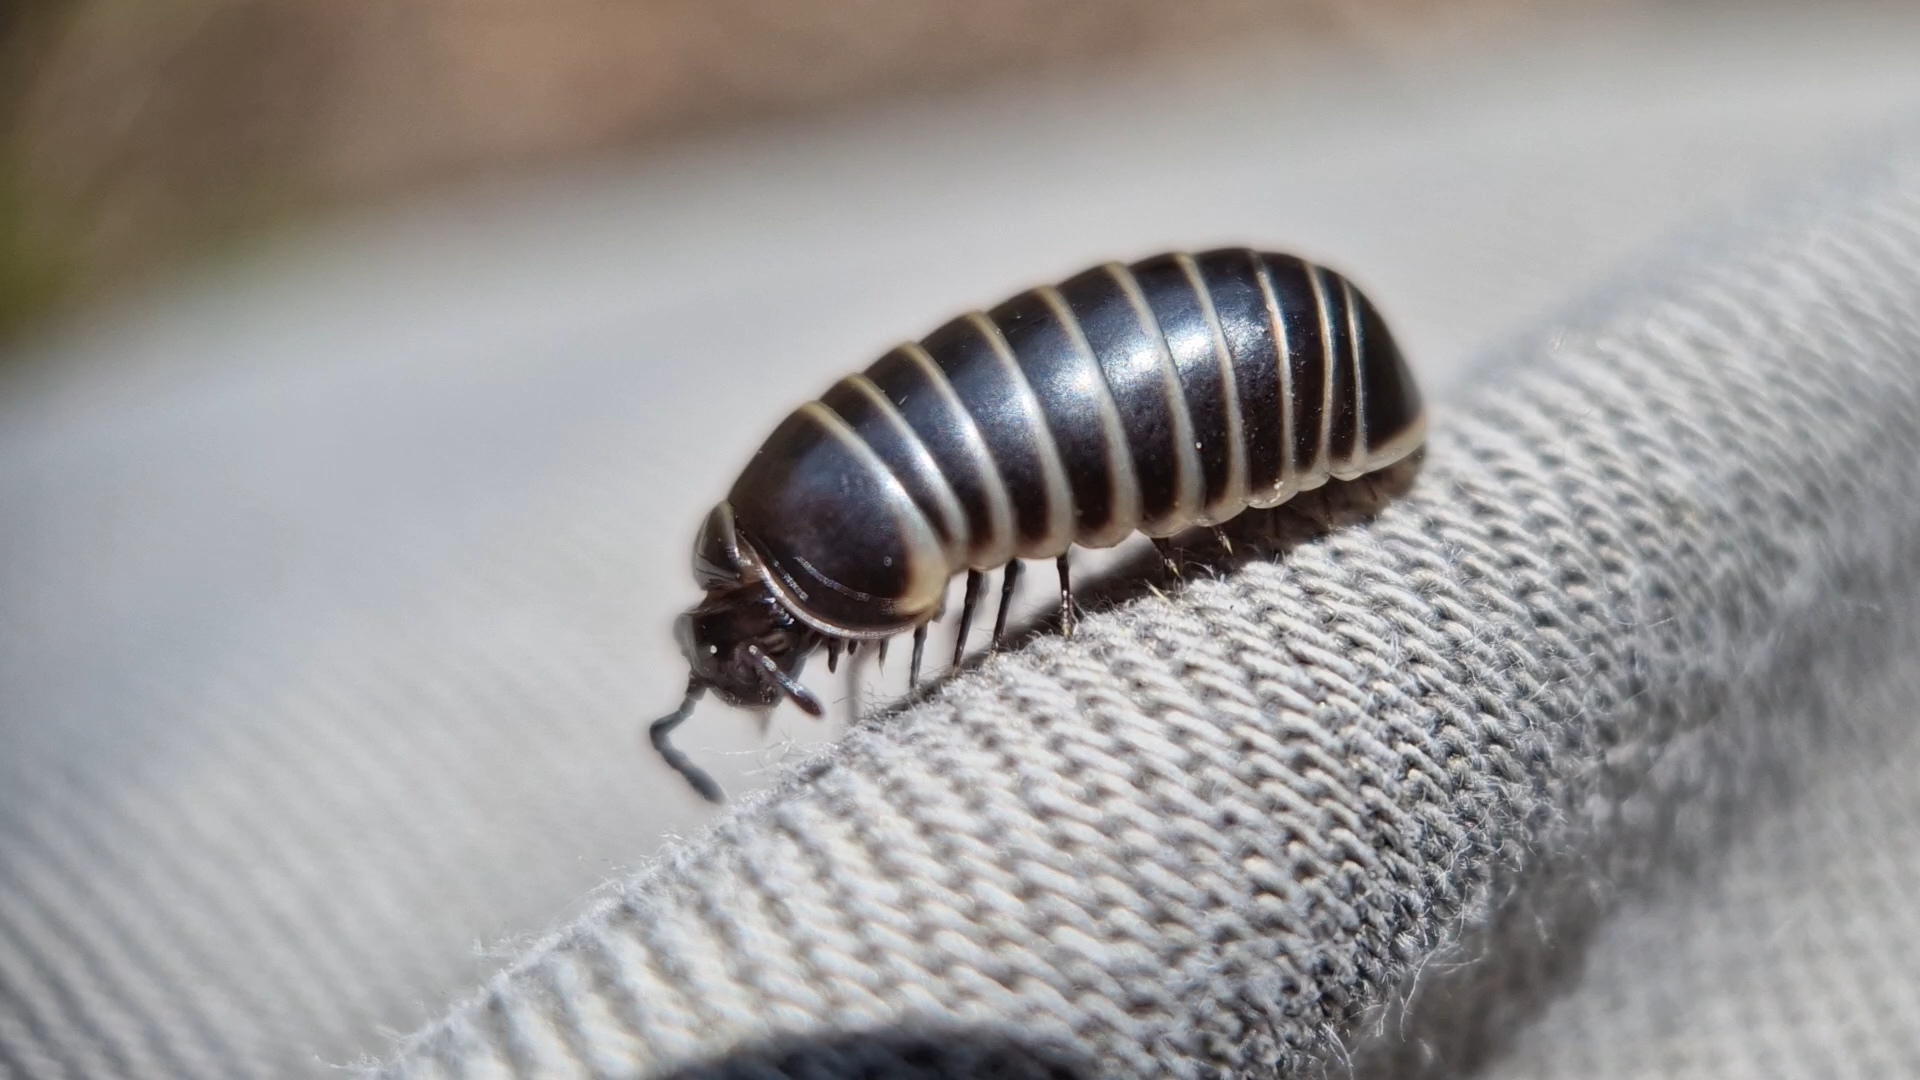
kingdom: Animalia
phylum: Arthropoda
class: Diplopoda
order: Glomerida
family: Glomeridae
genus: Glomeris
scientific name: Glomeris marginata
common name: Bordered pill millipede
